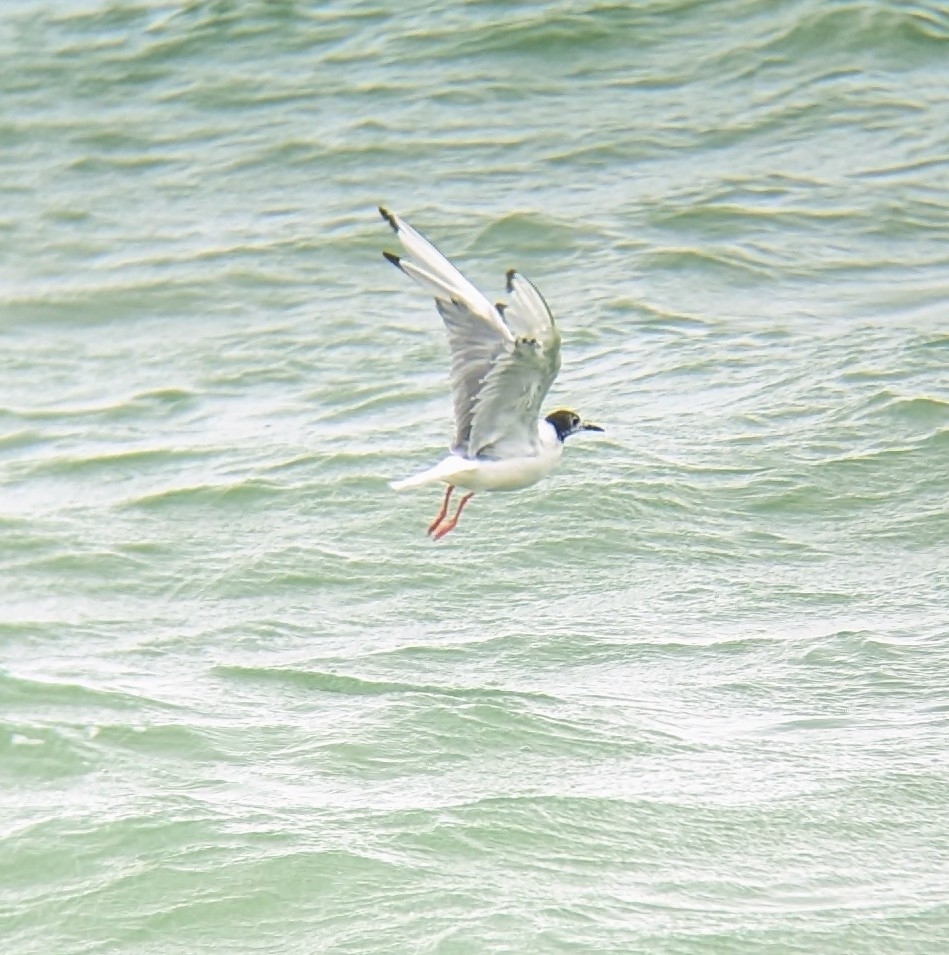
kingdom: Animalia
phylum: Chordata
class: Aves
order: Charadriiformes
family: Laridae
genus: Chroicocephalus
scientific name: Chroicocephalus philadelphia
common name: Bonaparte's gull
